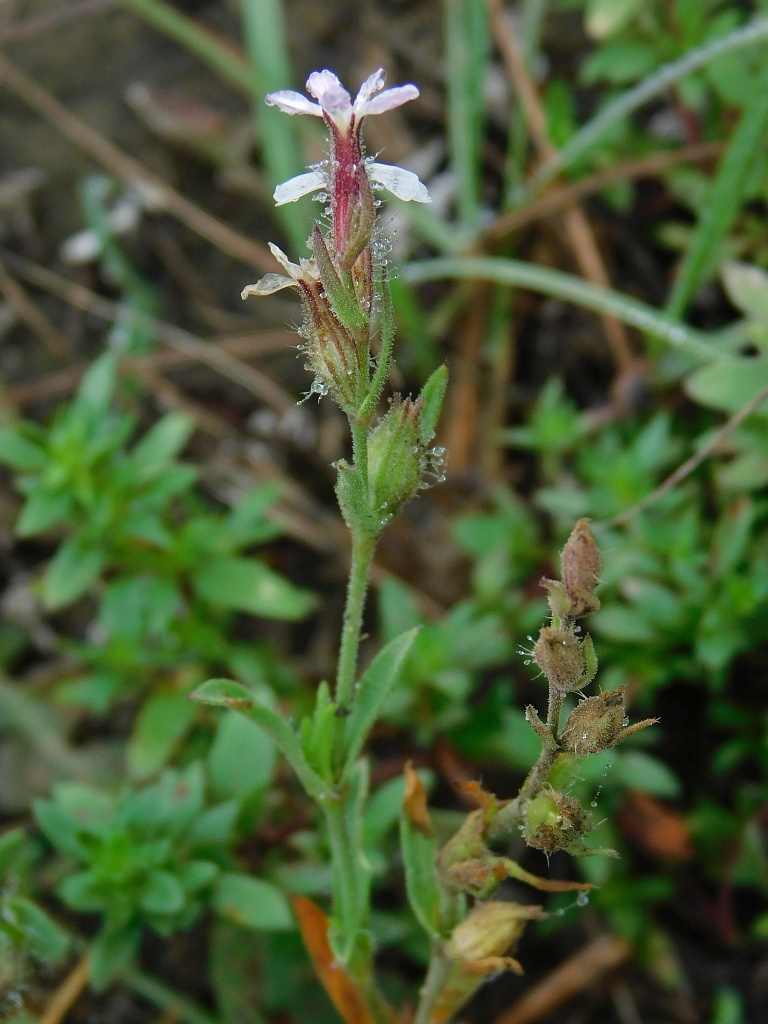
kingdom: Plantae
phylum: Tracheophyta
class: Magnoliopsida
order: Caryophyllales
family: Caryophyllaceae
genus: Silene
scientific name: Silene gallica
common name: Small-flowered catchfly
